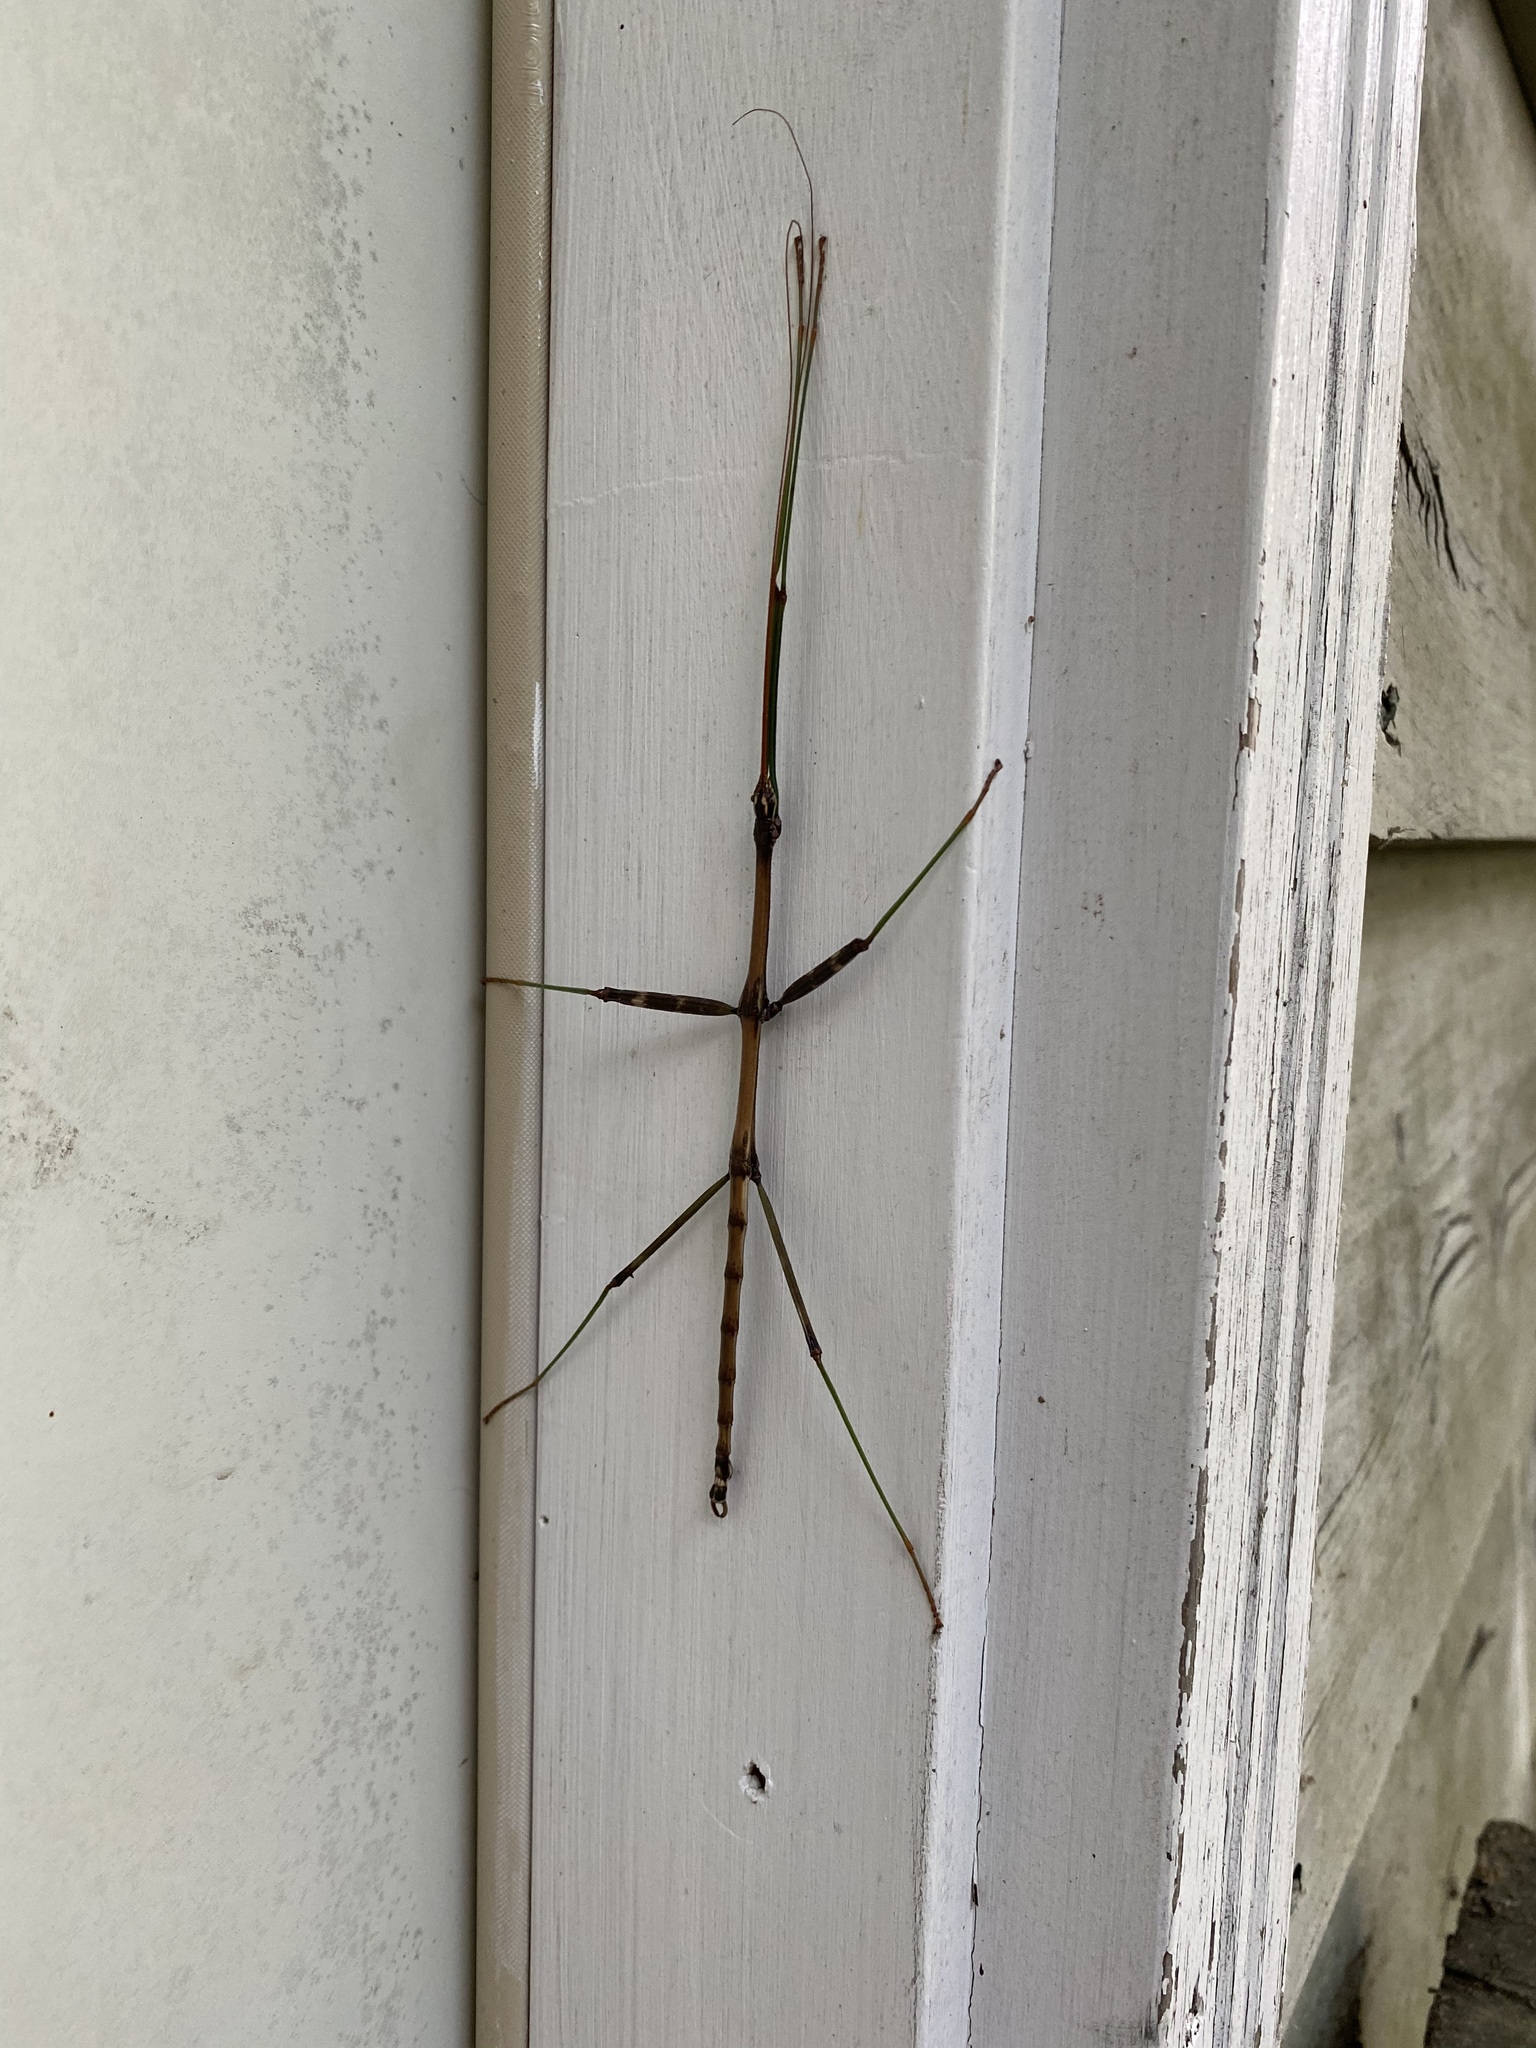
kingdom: Animalia
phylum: Arthropoda
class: Insecta
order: Phasmida
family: Diapheromeridae
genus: Diapheromera
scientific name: Diapheromera femorata
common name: Common american walkingstick
